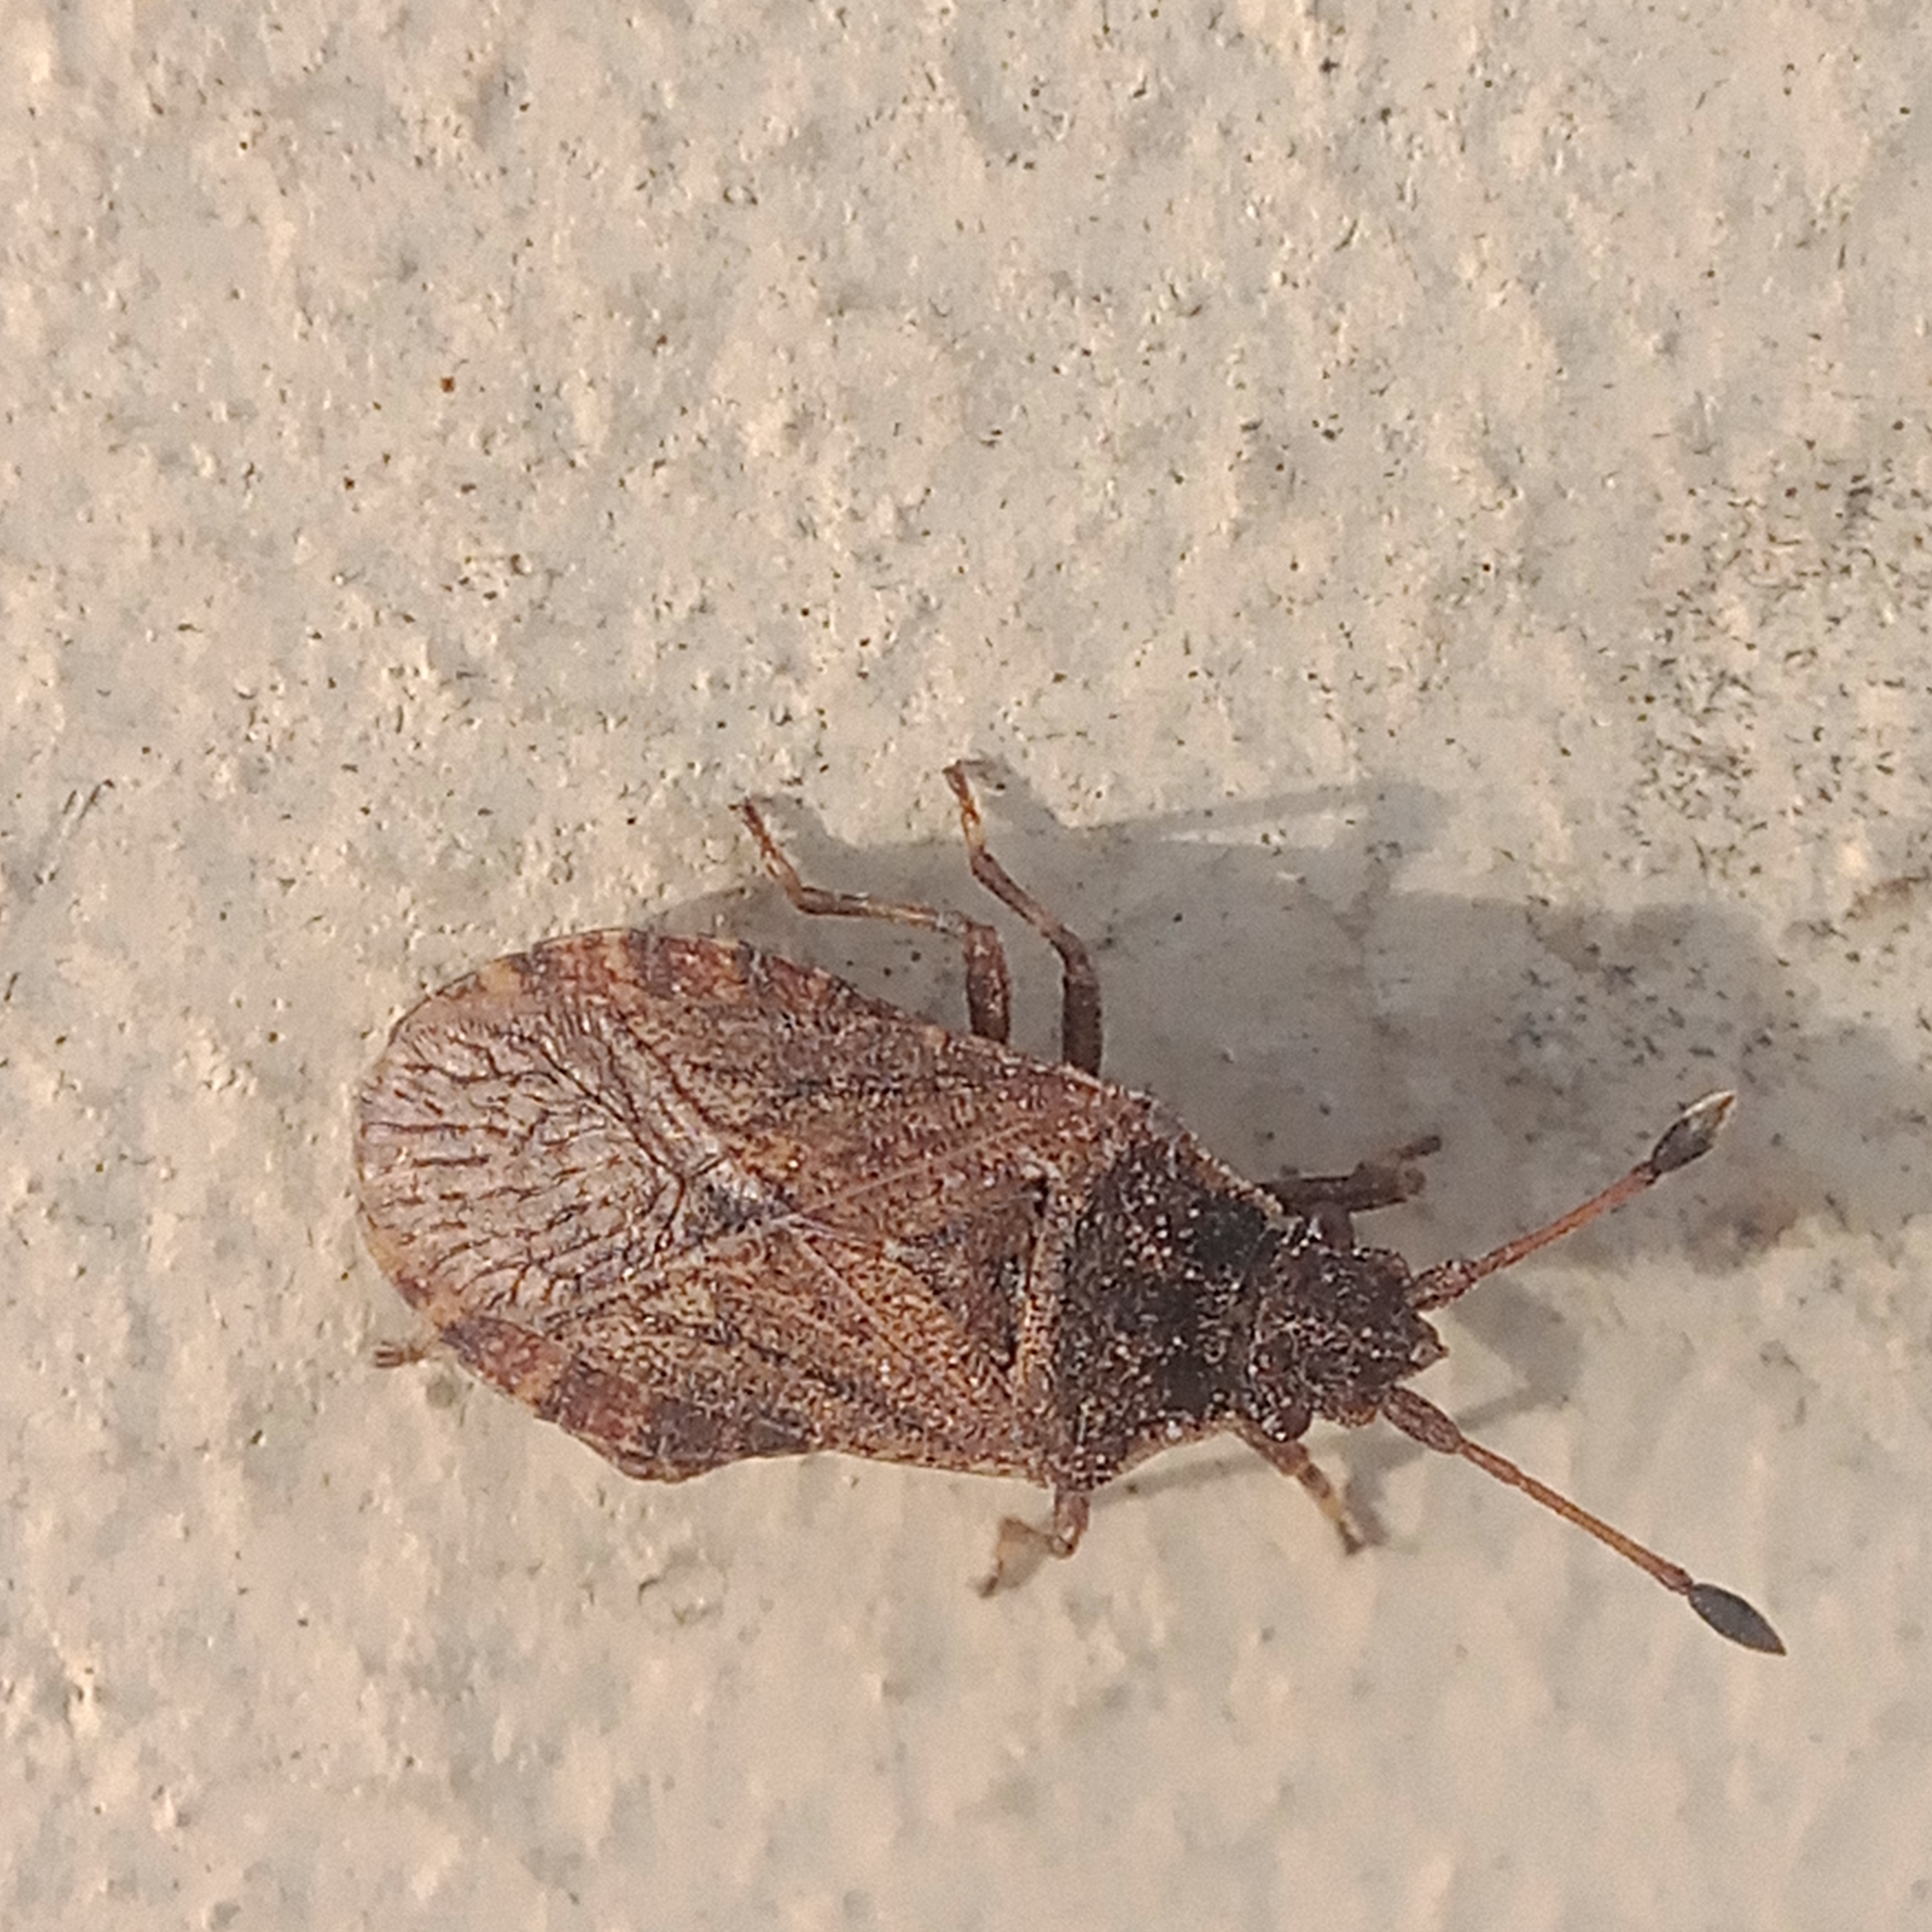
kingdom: Animalia
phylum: Arthropoda
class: Insecta
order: Hemiptera
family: Coreidae
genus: Bathysolen
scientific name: Bathysolen nubilus
